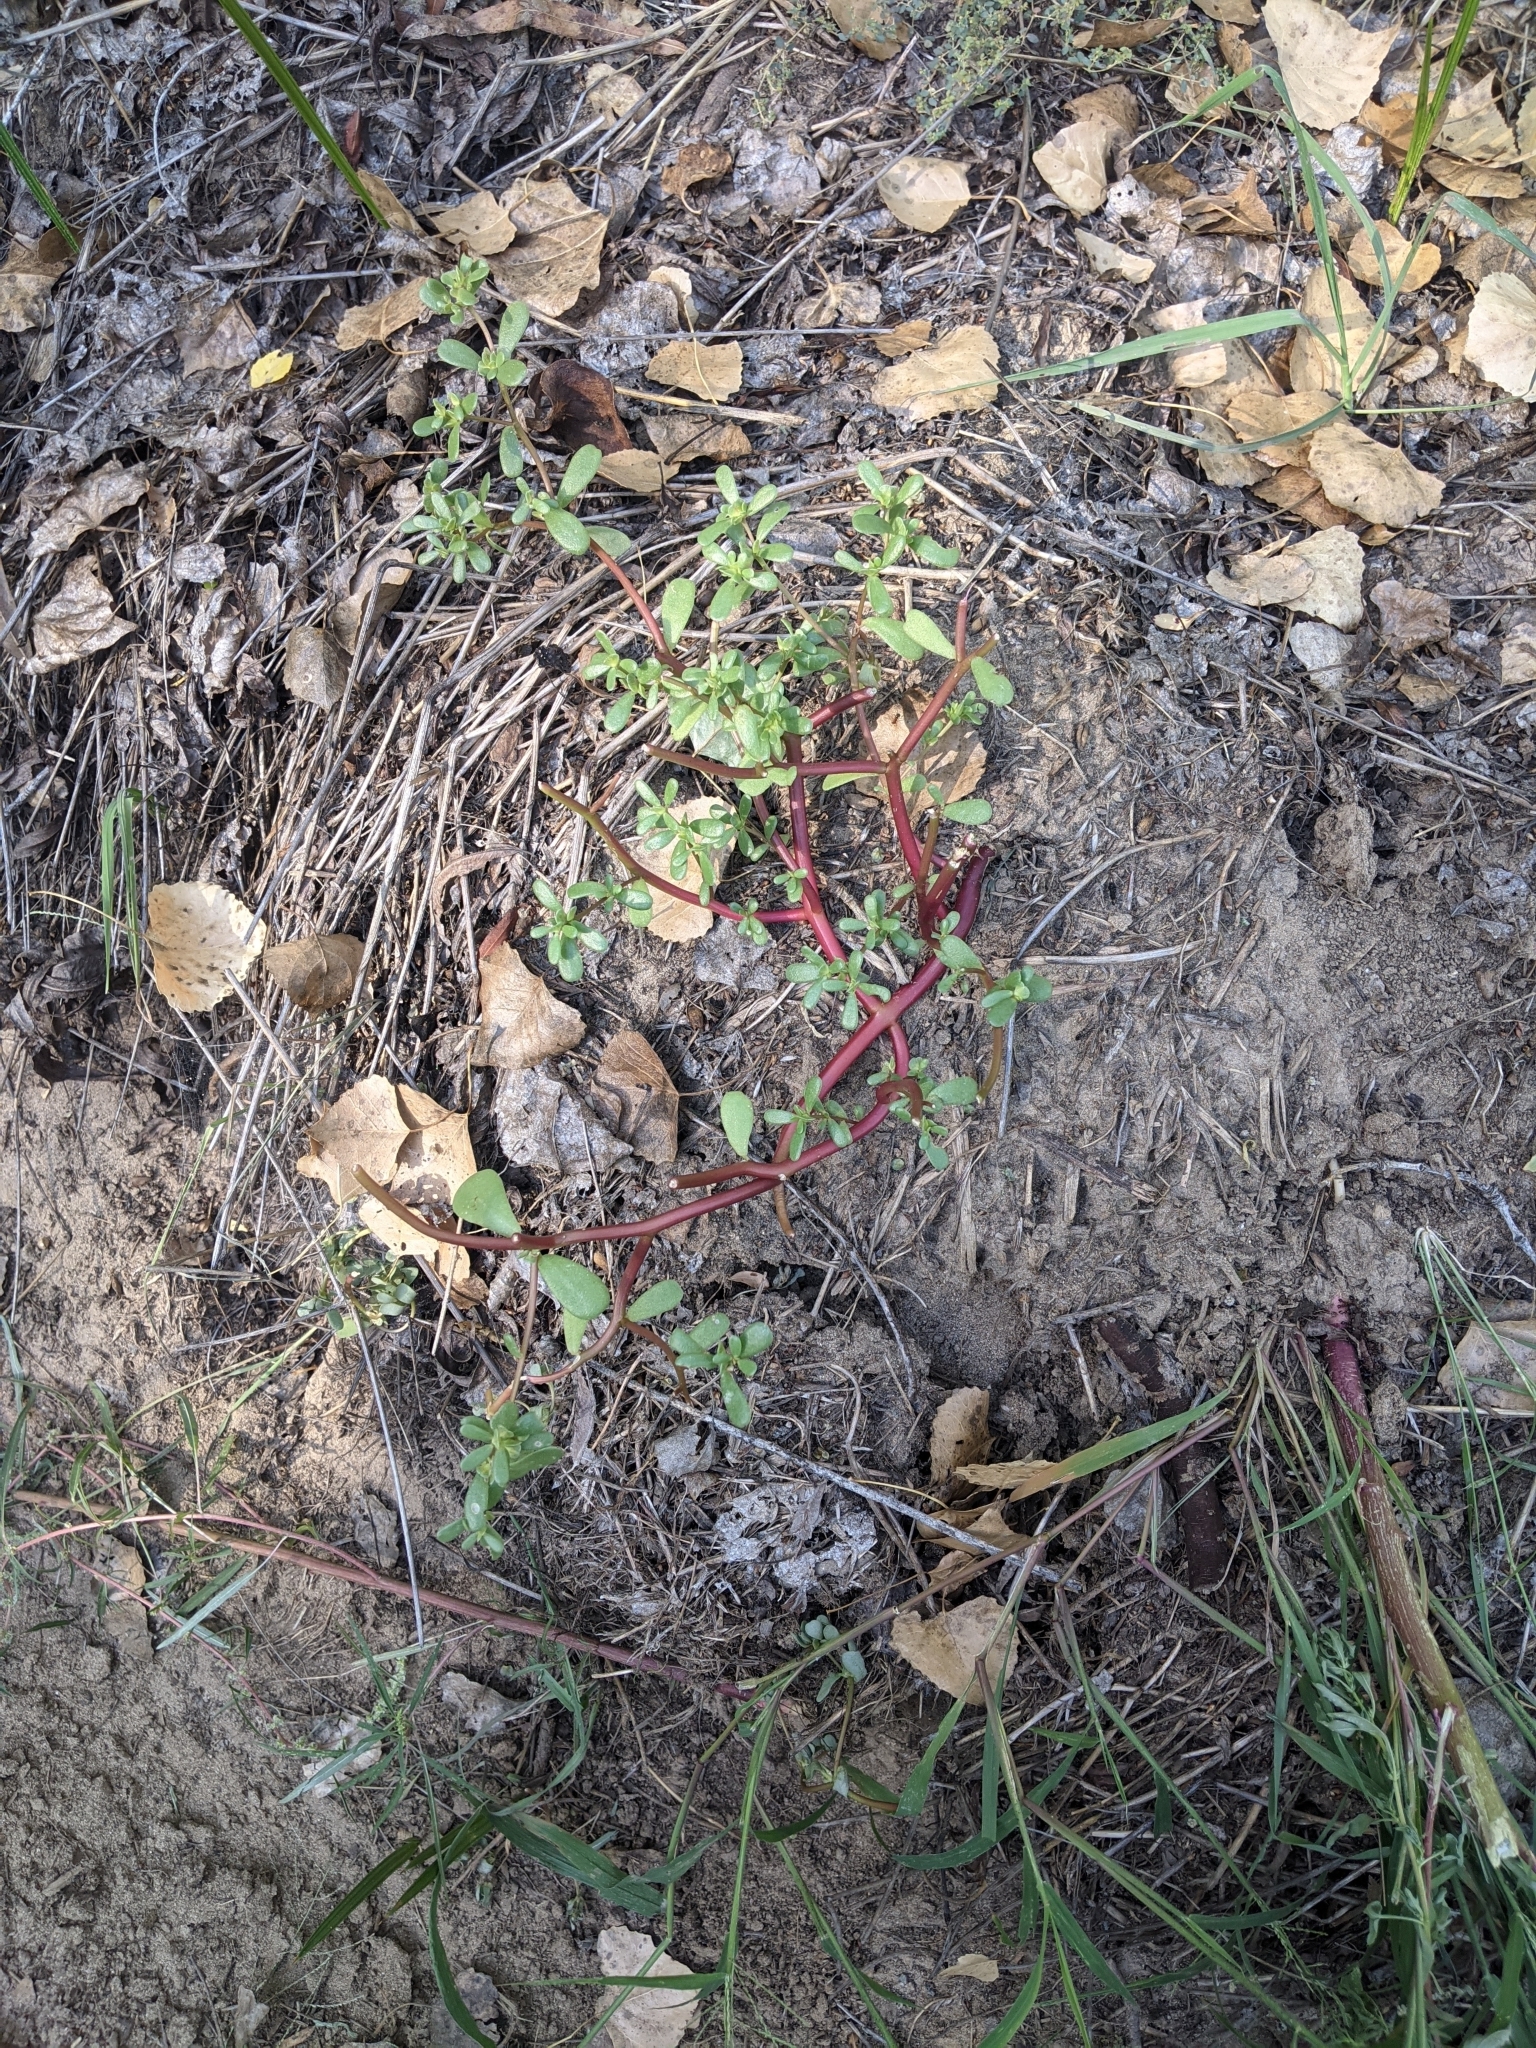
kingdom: Plantae
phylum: Tracheophyta
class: Magnoliopsida
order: Caryophyllales
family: Portulacaceae
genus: Portulaca
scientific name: Portulaca oleracea
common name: Common purslane
